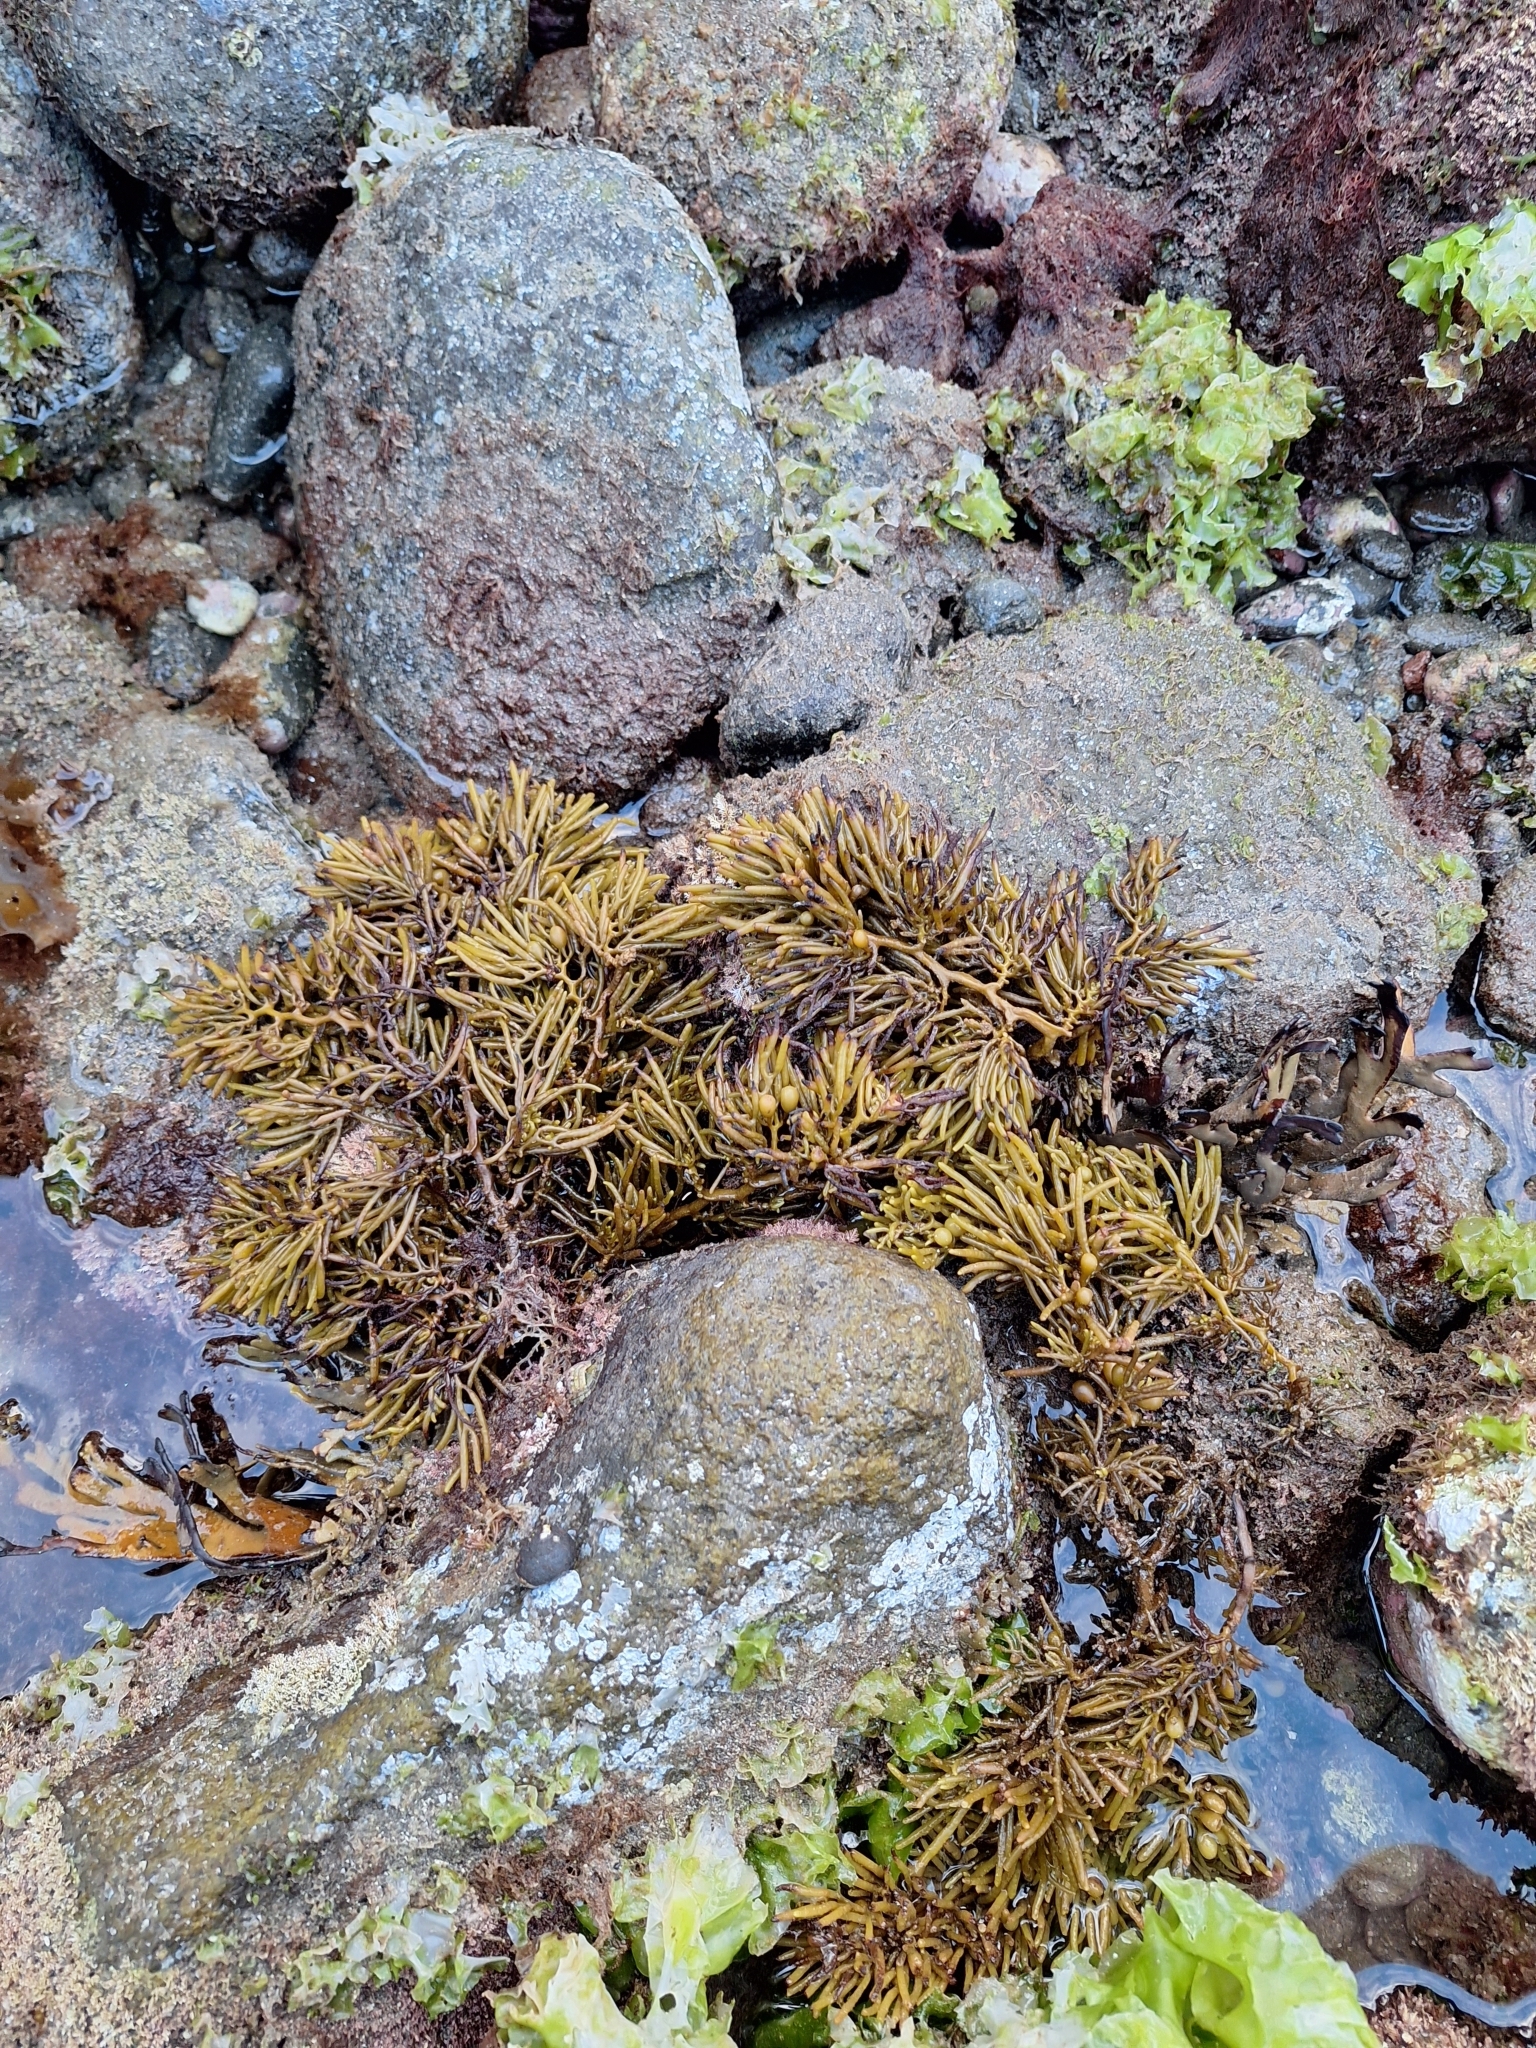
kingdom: Chromista
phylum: Ochrophyta
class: Phaeophyceae
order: Fucales
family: Sargassaceae
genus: Cystophora
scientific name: Cystophora torulosa
